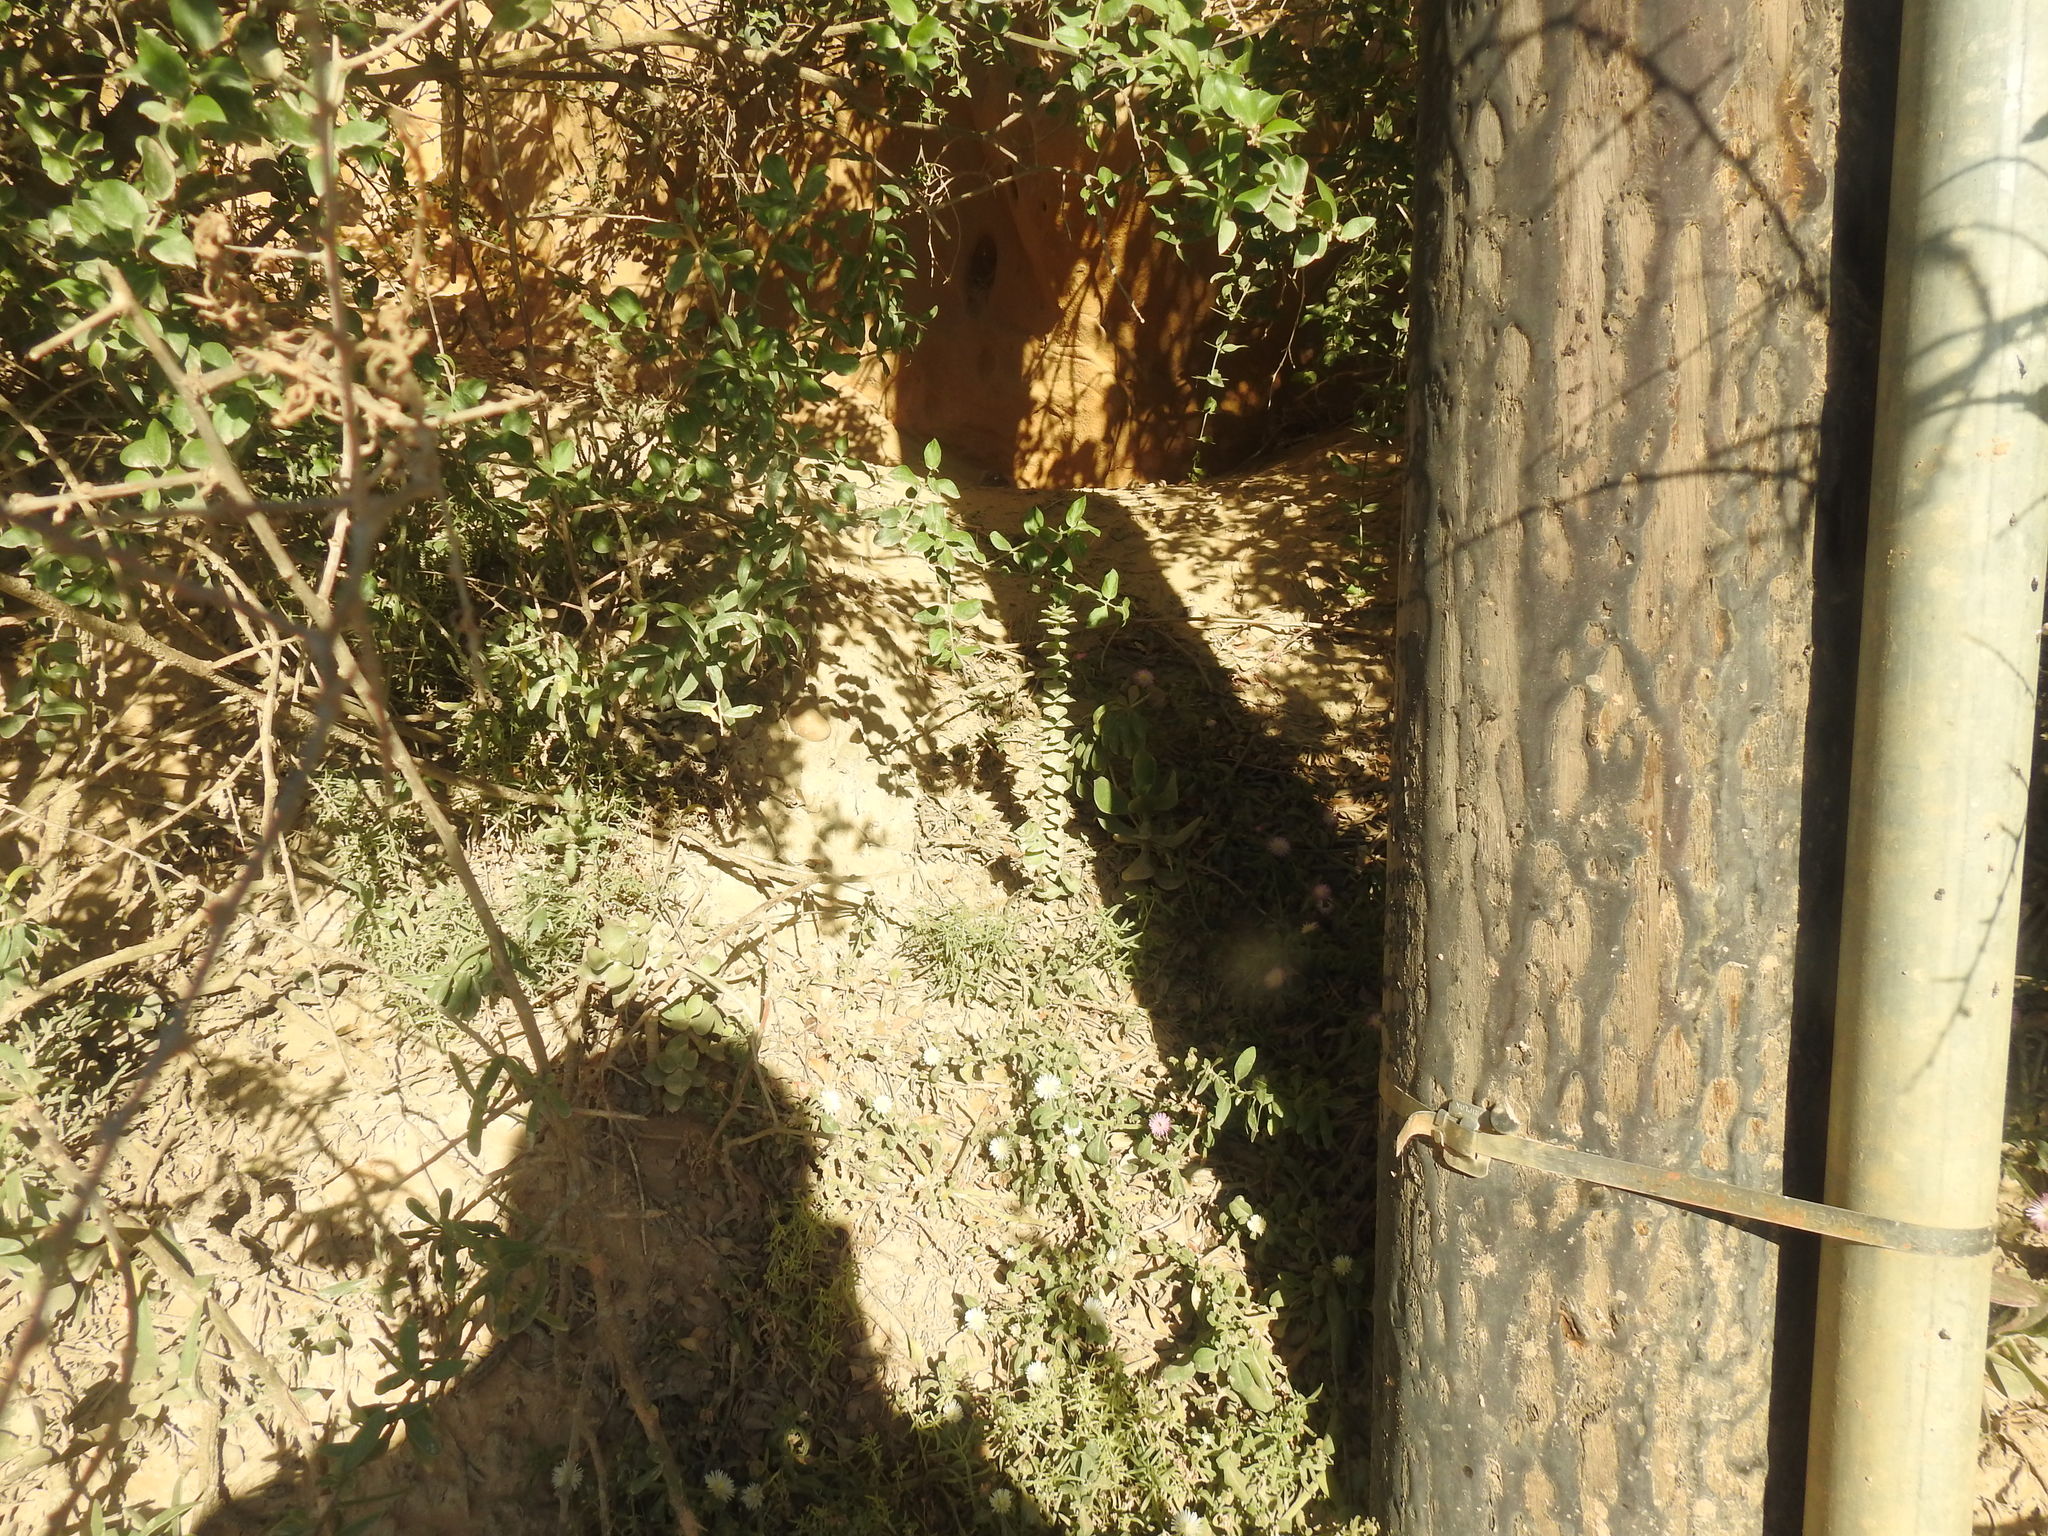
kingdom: Plantae
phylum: Tracheophyta
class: Magnoliopsida
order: Saxifragales
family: Crassulaceae
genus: Crassula
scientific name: Crassula perforata
